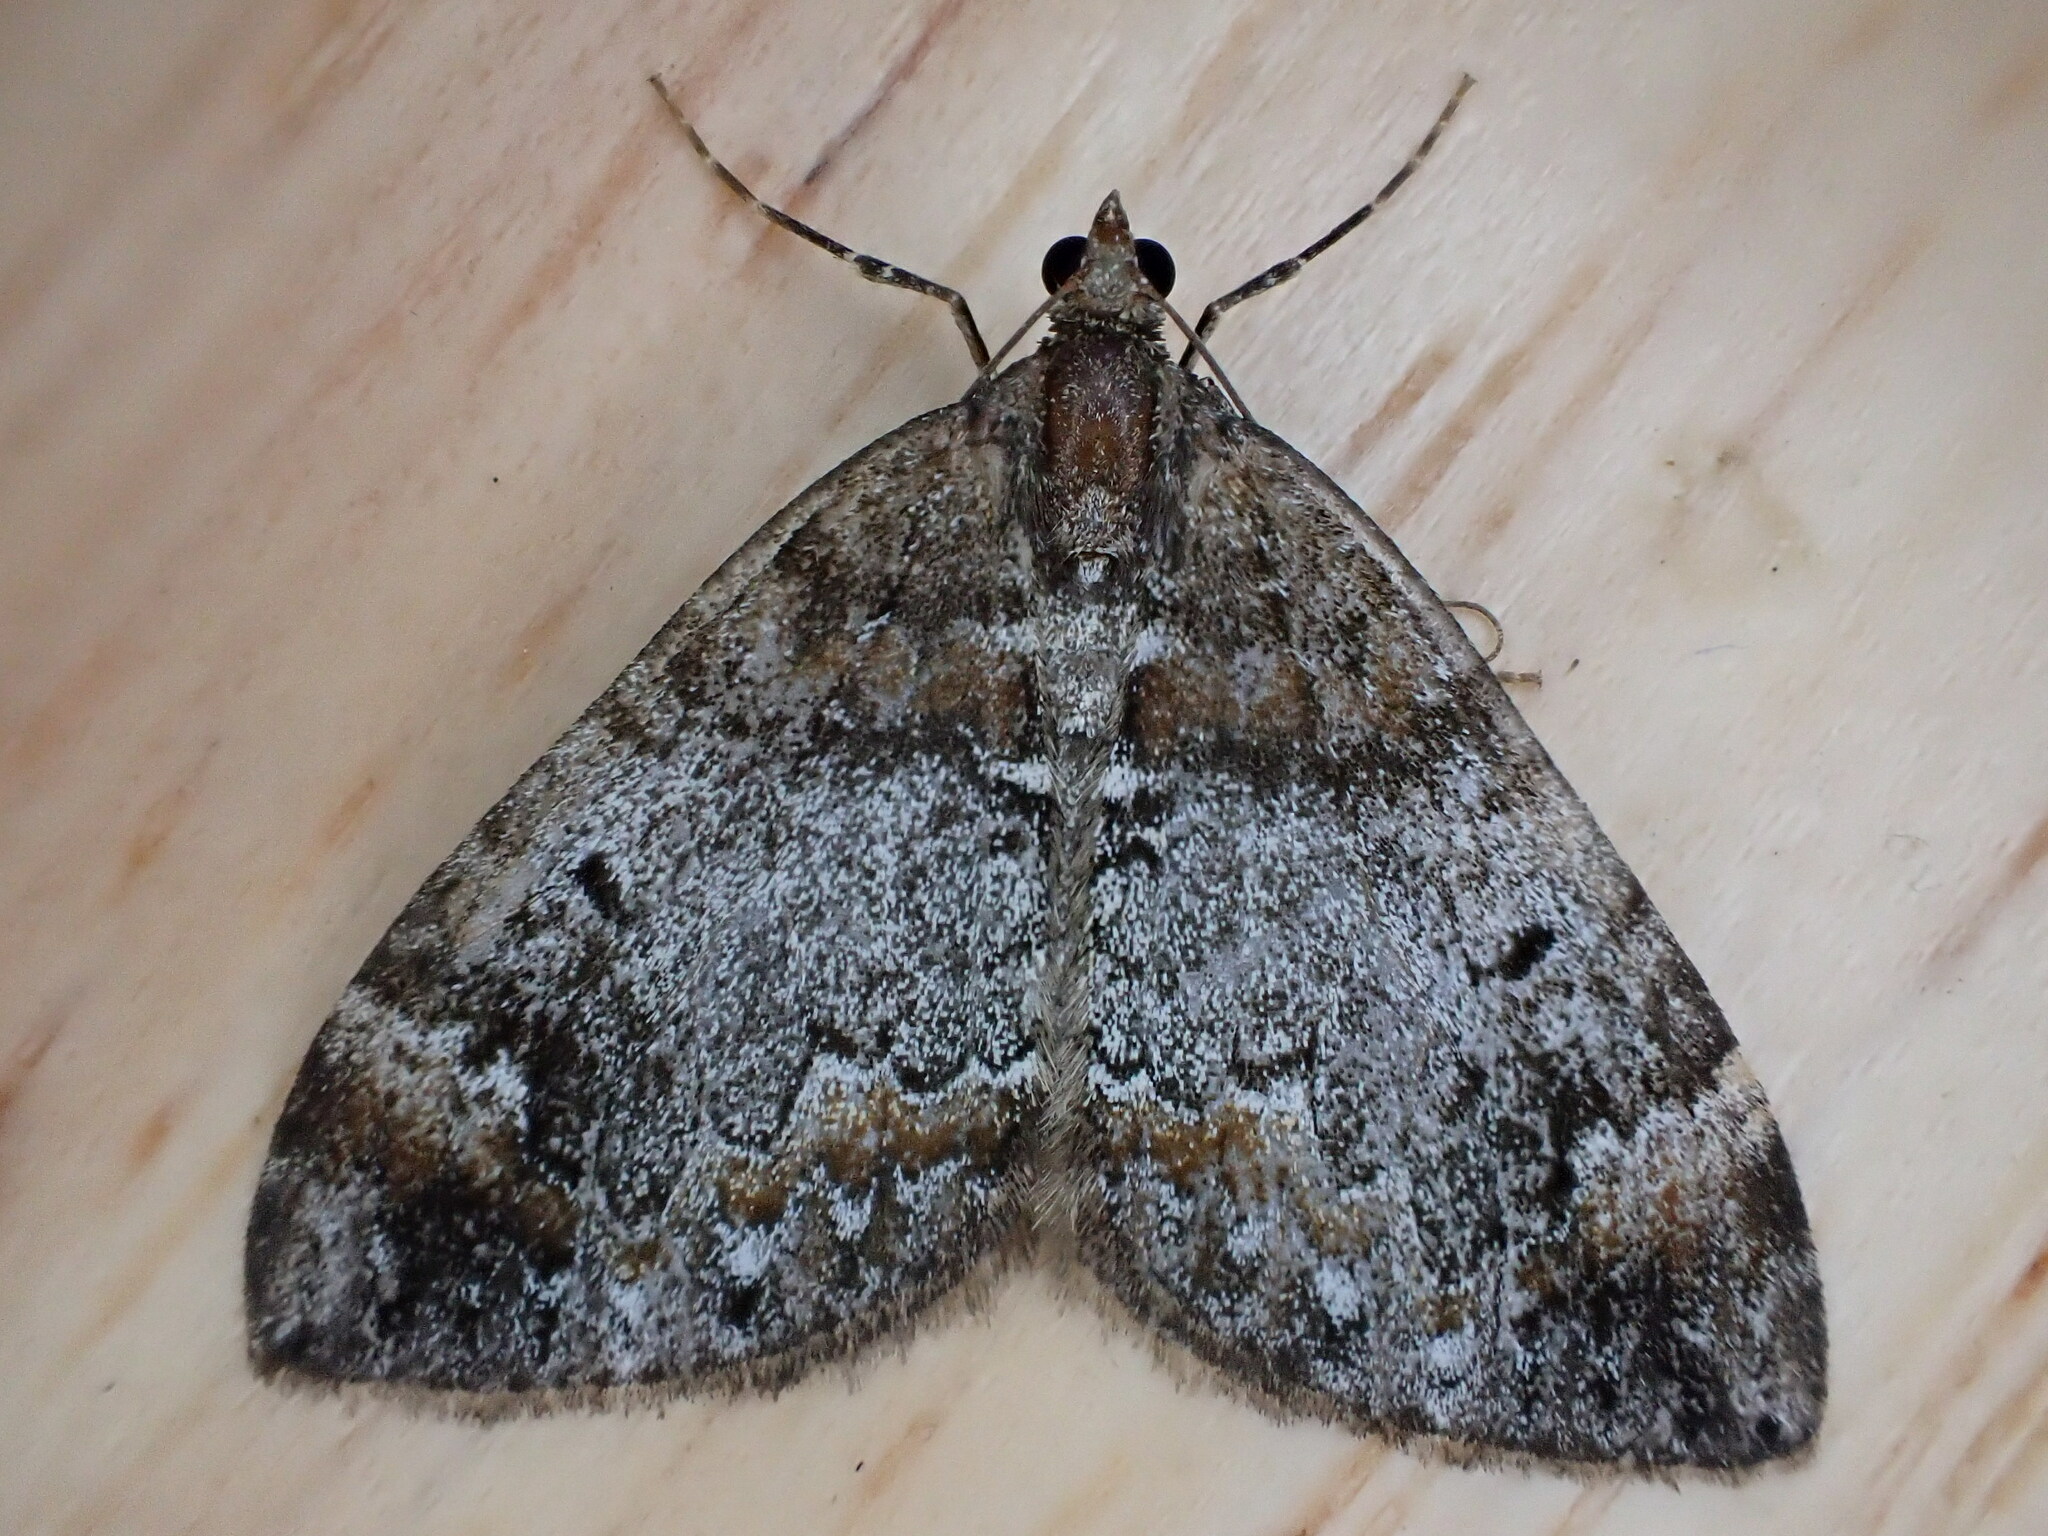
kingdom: Animalia
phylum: Arthropoda
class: Insecta
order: Lepidoptera
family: Geometridae
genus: Dysstroma
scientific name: Dysstroma truncata
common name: Common marbled carpet
